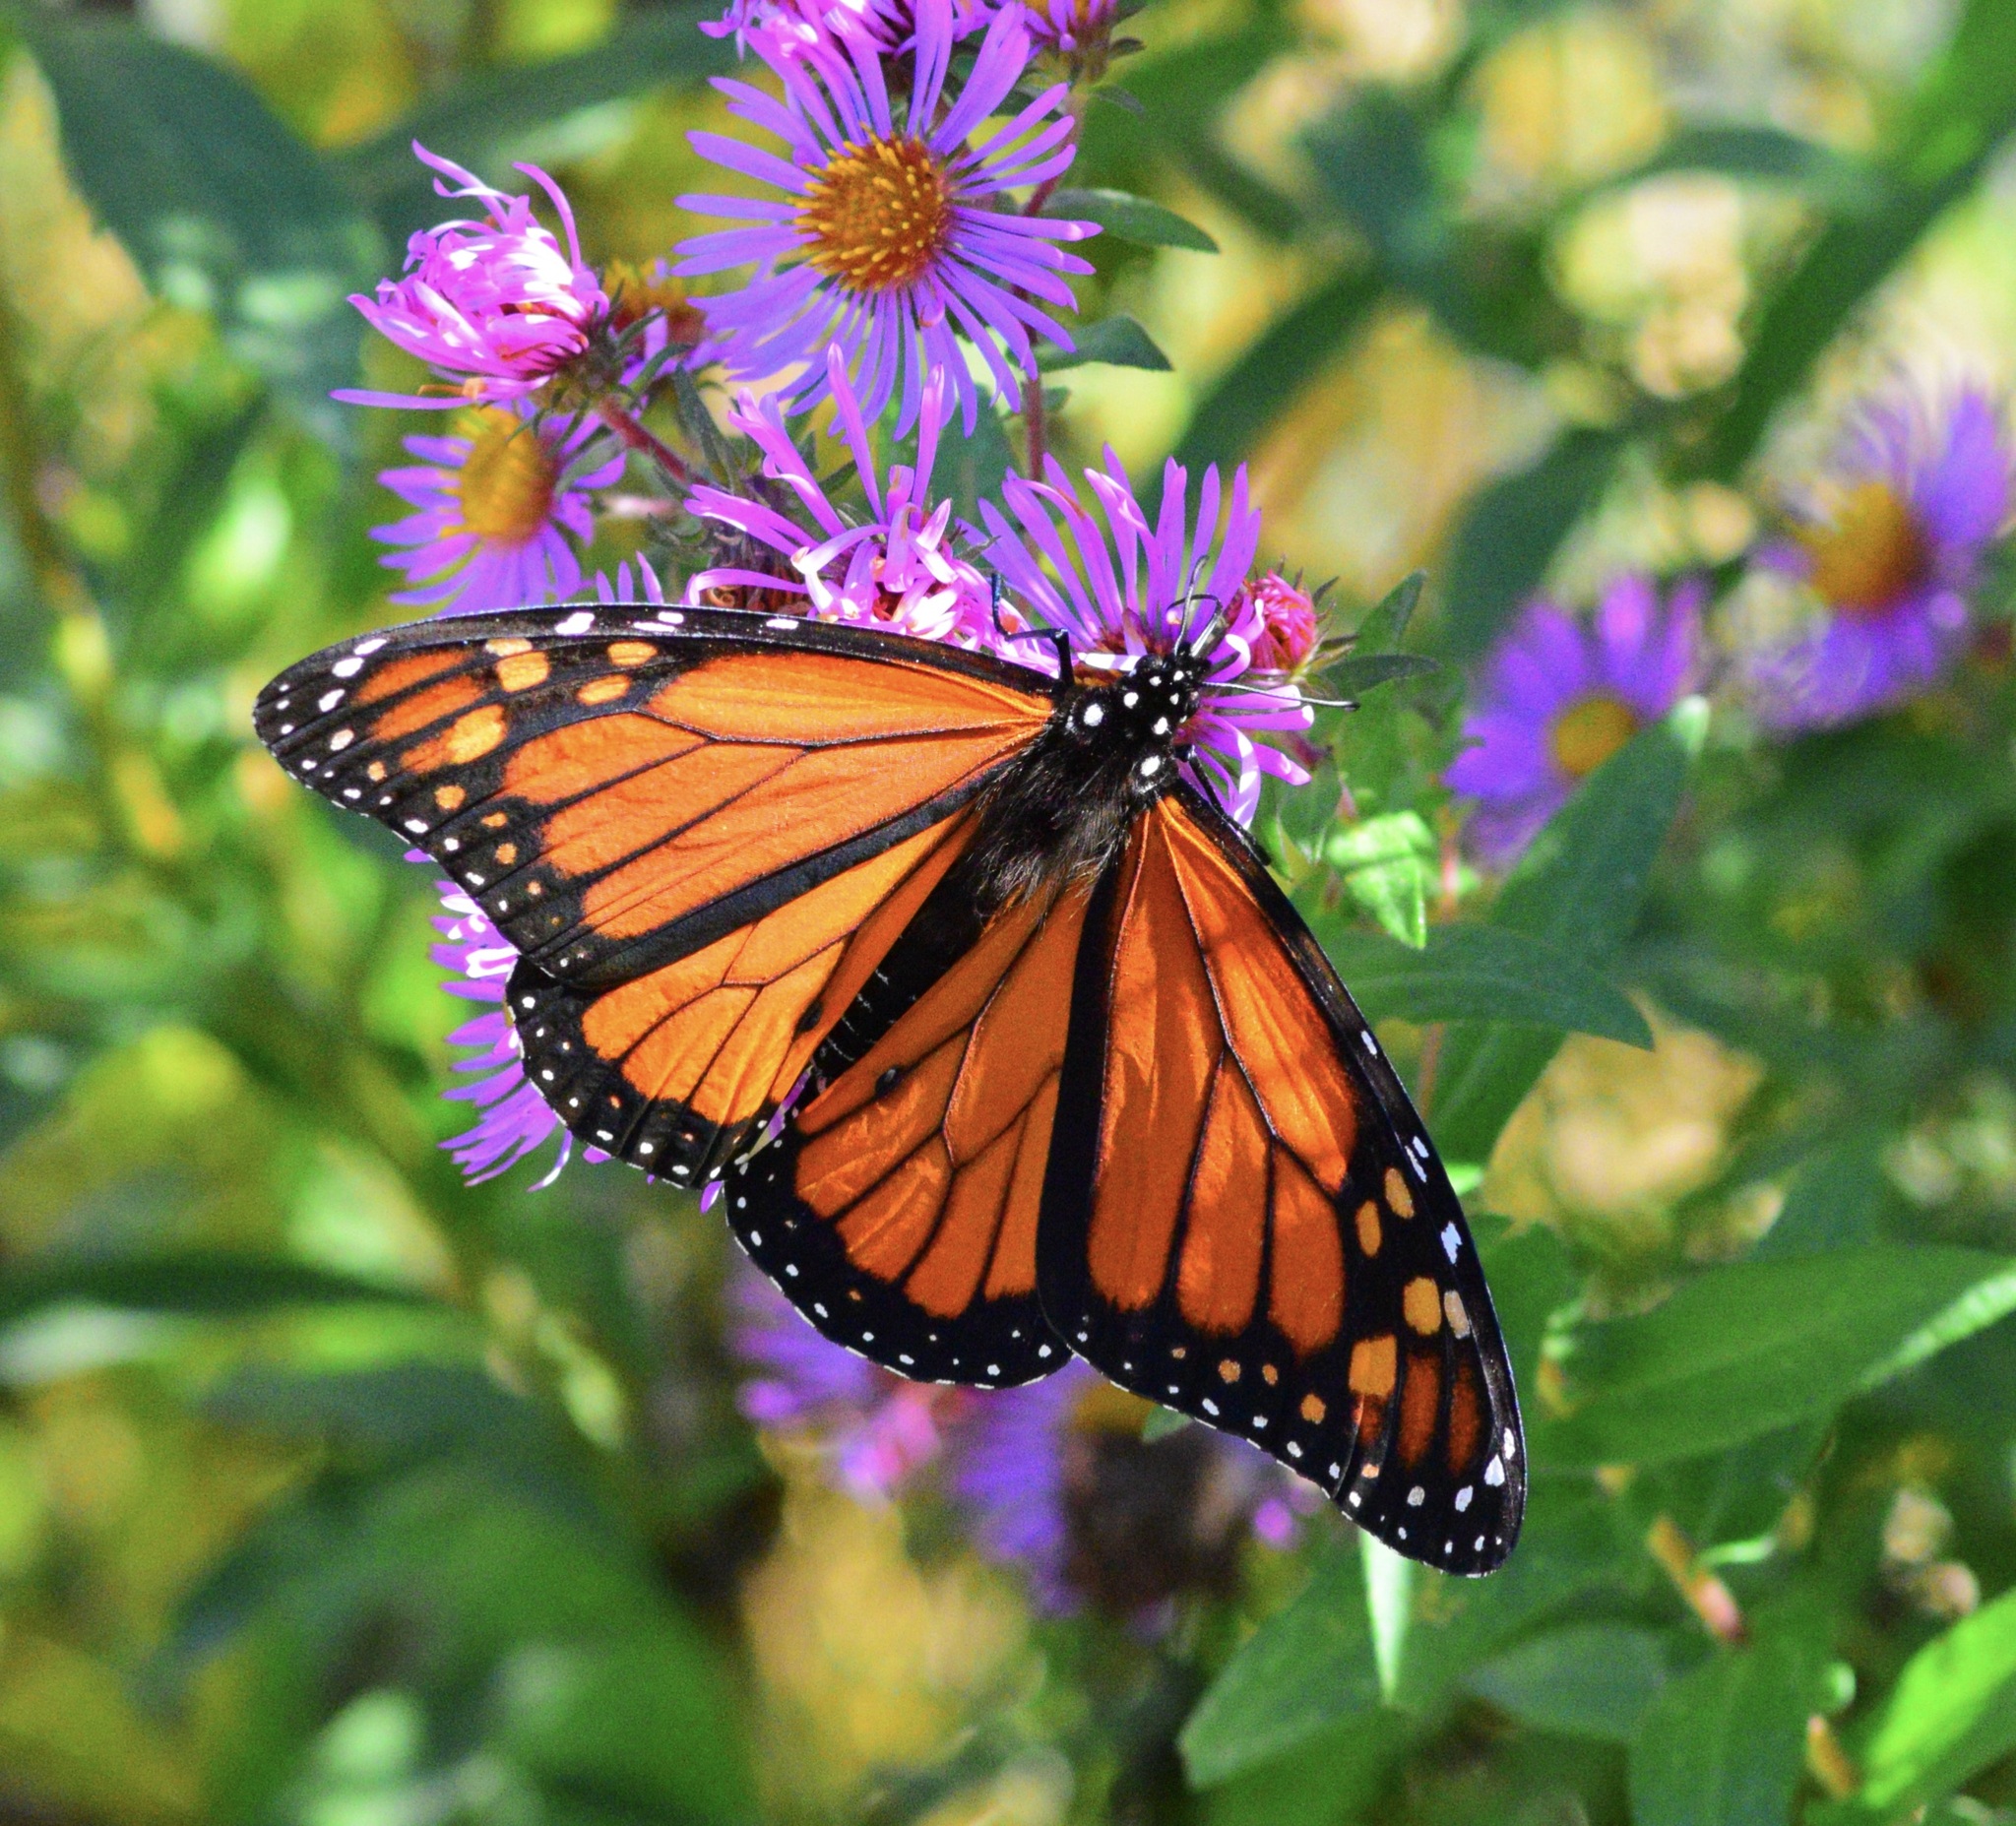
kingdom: Animalia
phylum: Arthropoda
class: Insecta
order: Lepidoptera
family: Nymphalidae
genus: Danaus
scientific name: Danaus plexippus
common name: Monarch
